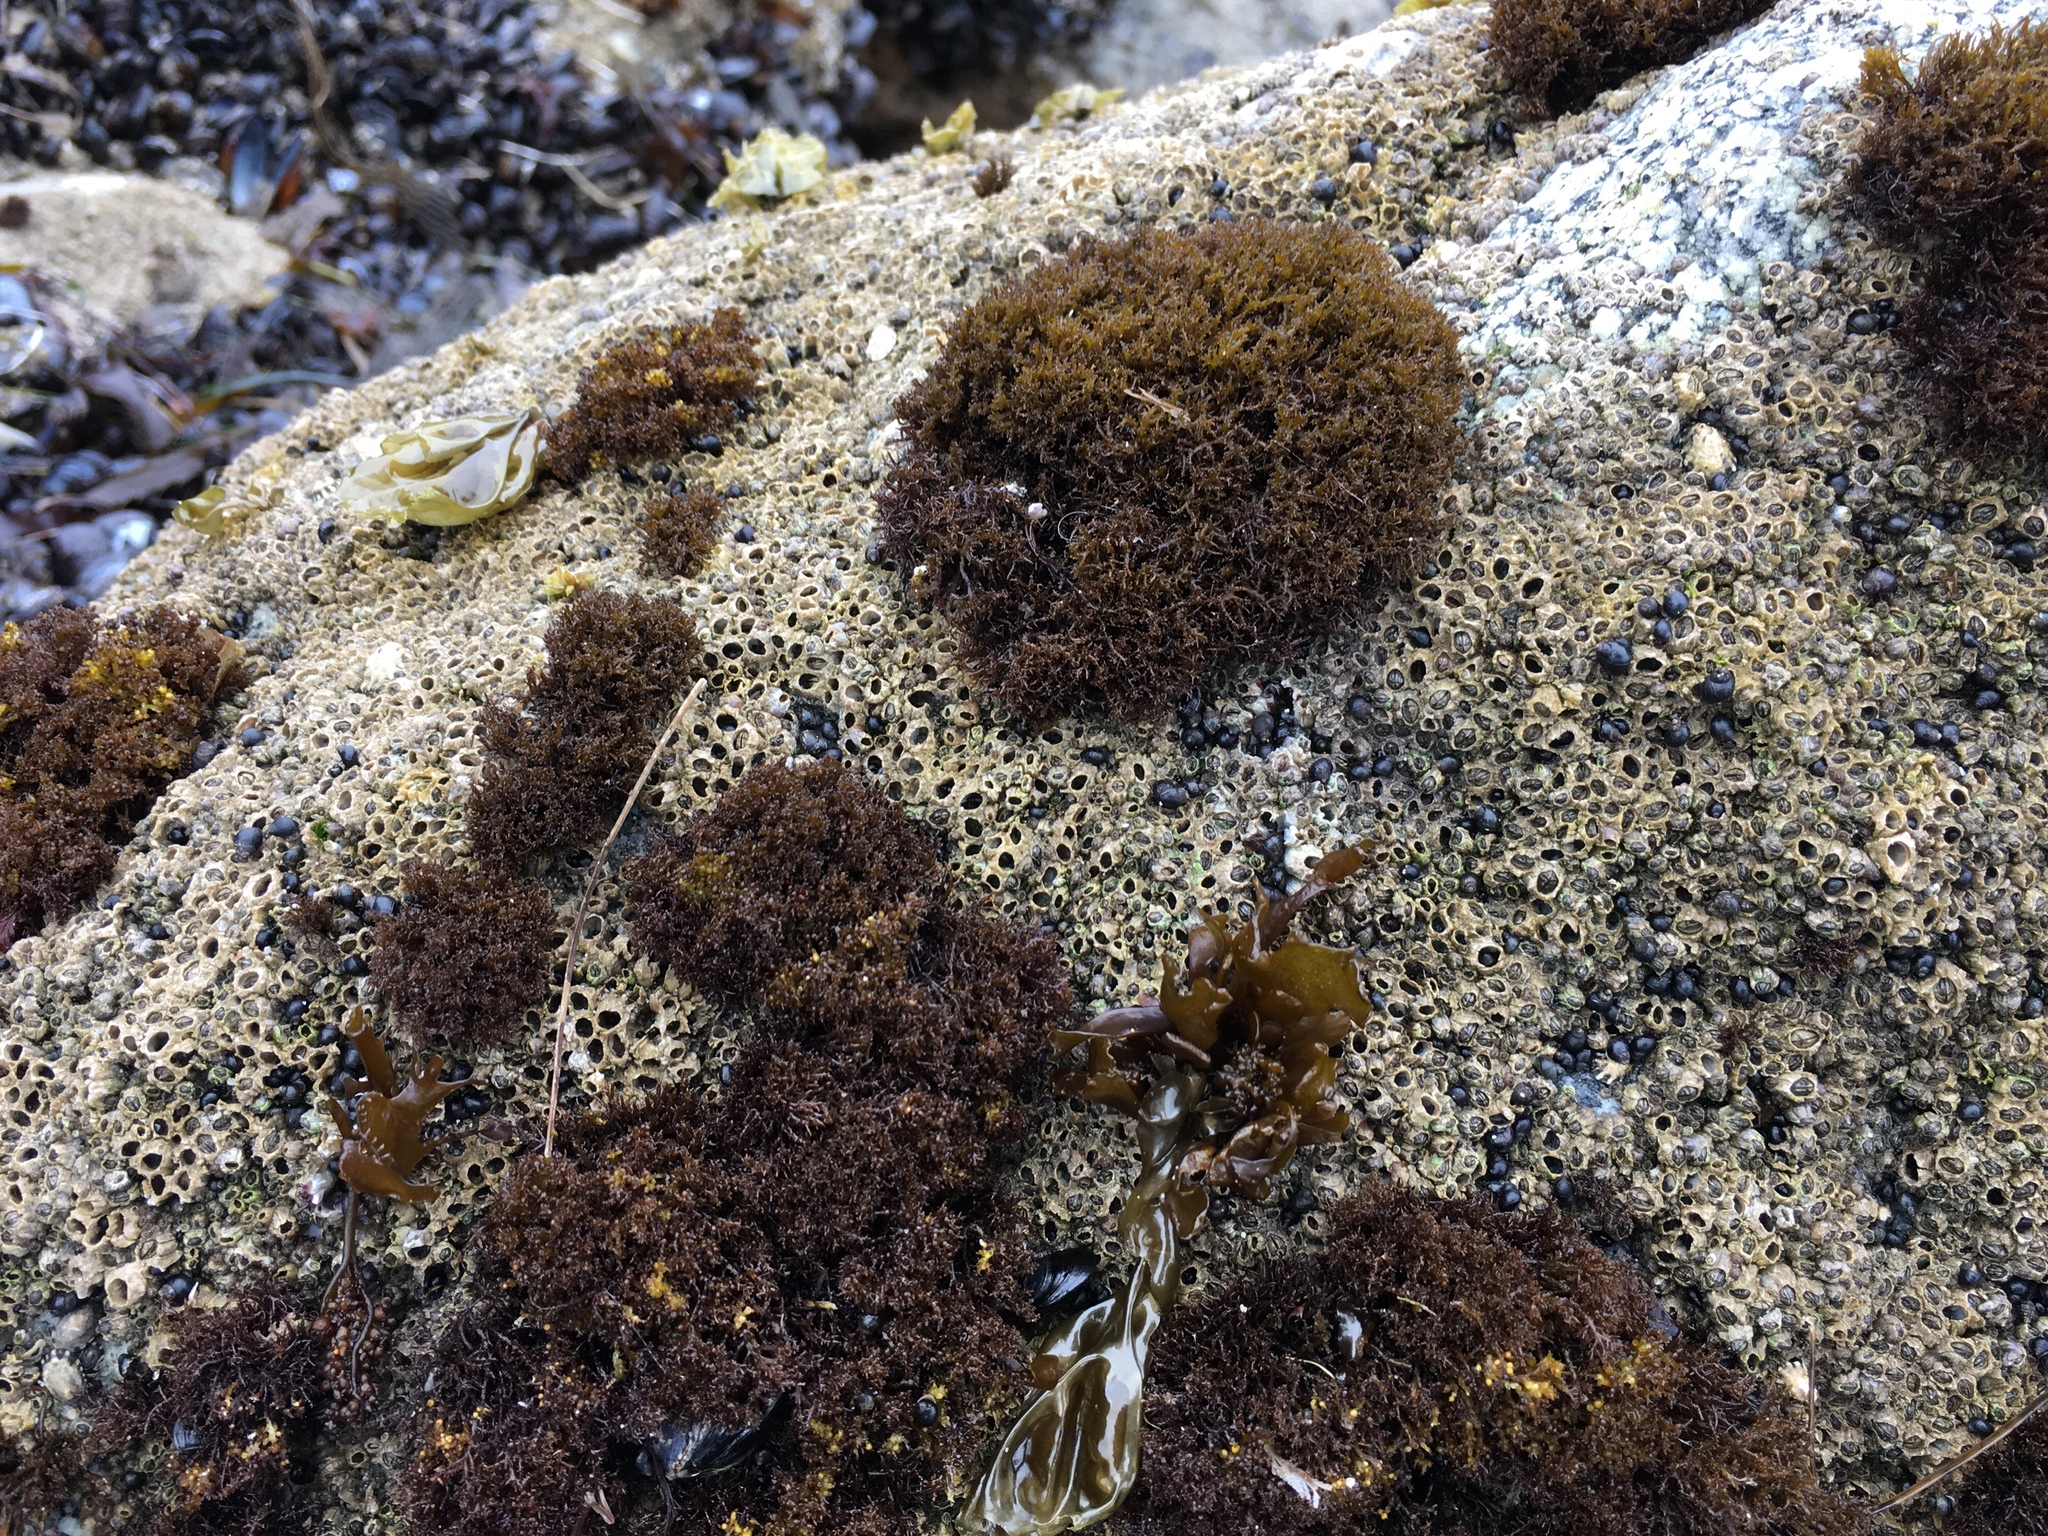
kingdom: Plantae
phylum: Rhodophyta
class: Florideophyceae
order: Gigartinales
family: Endocladiaceae
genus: Endocladia
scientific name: Endocladia muricata
